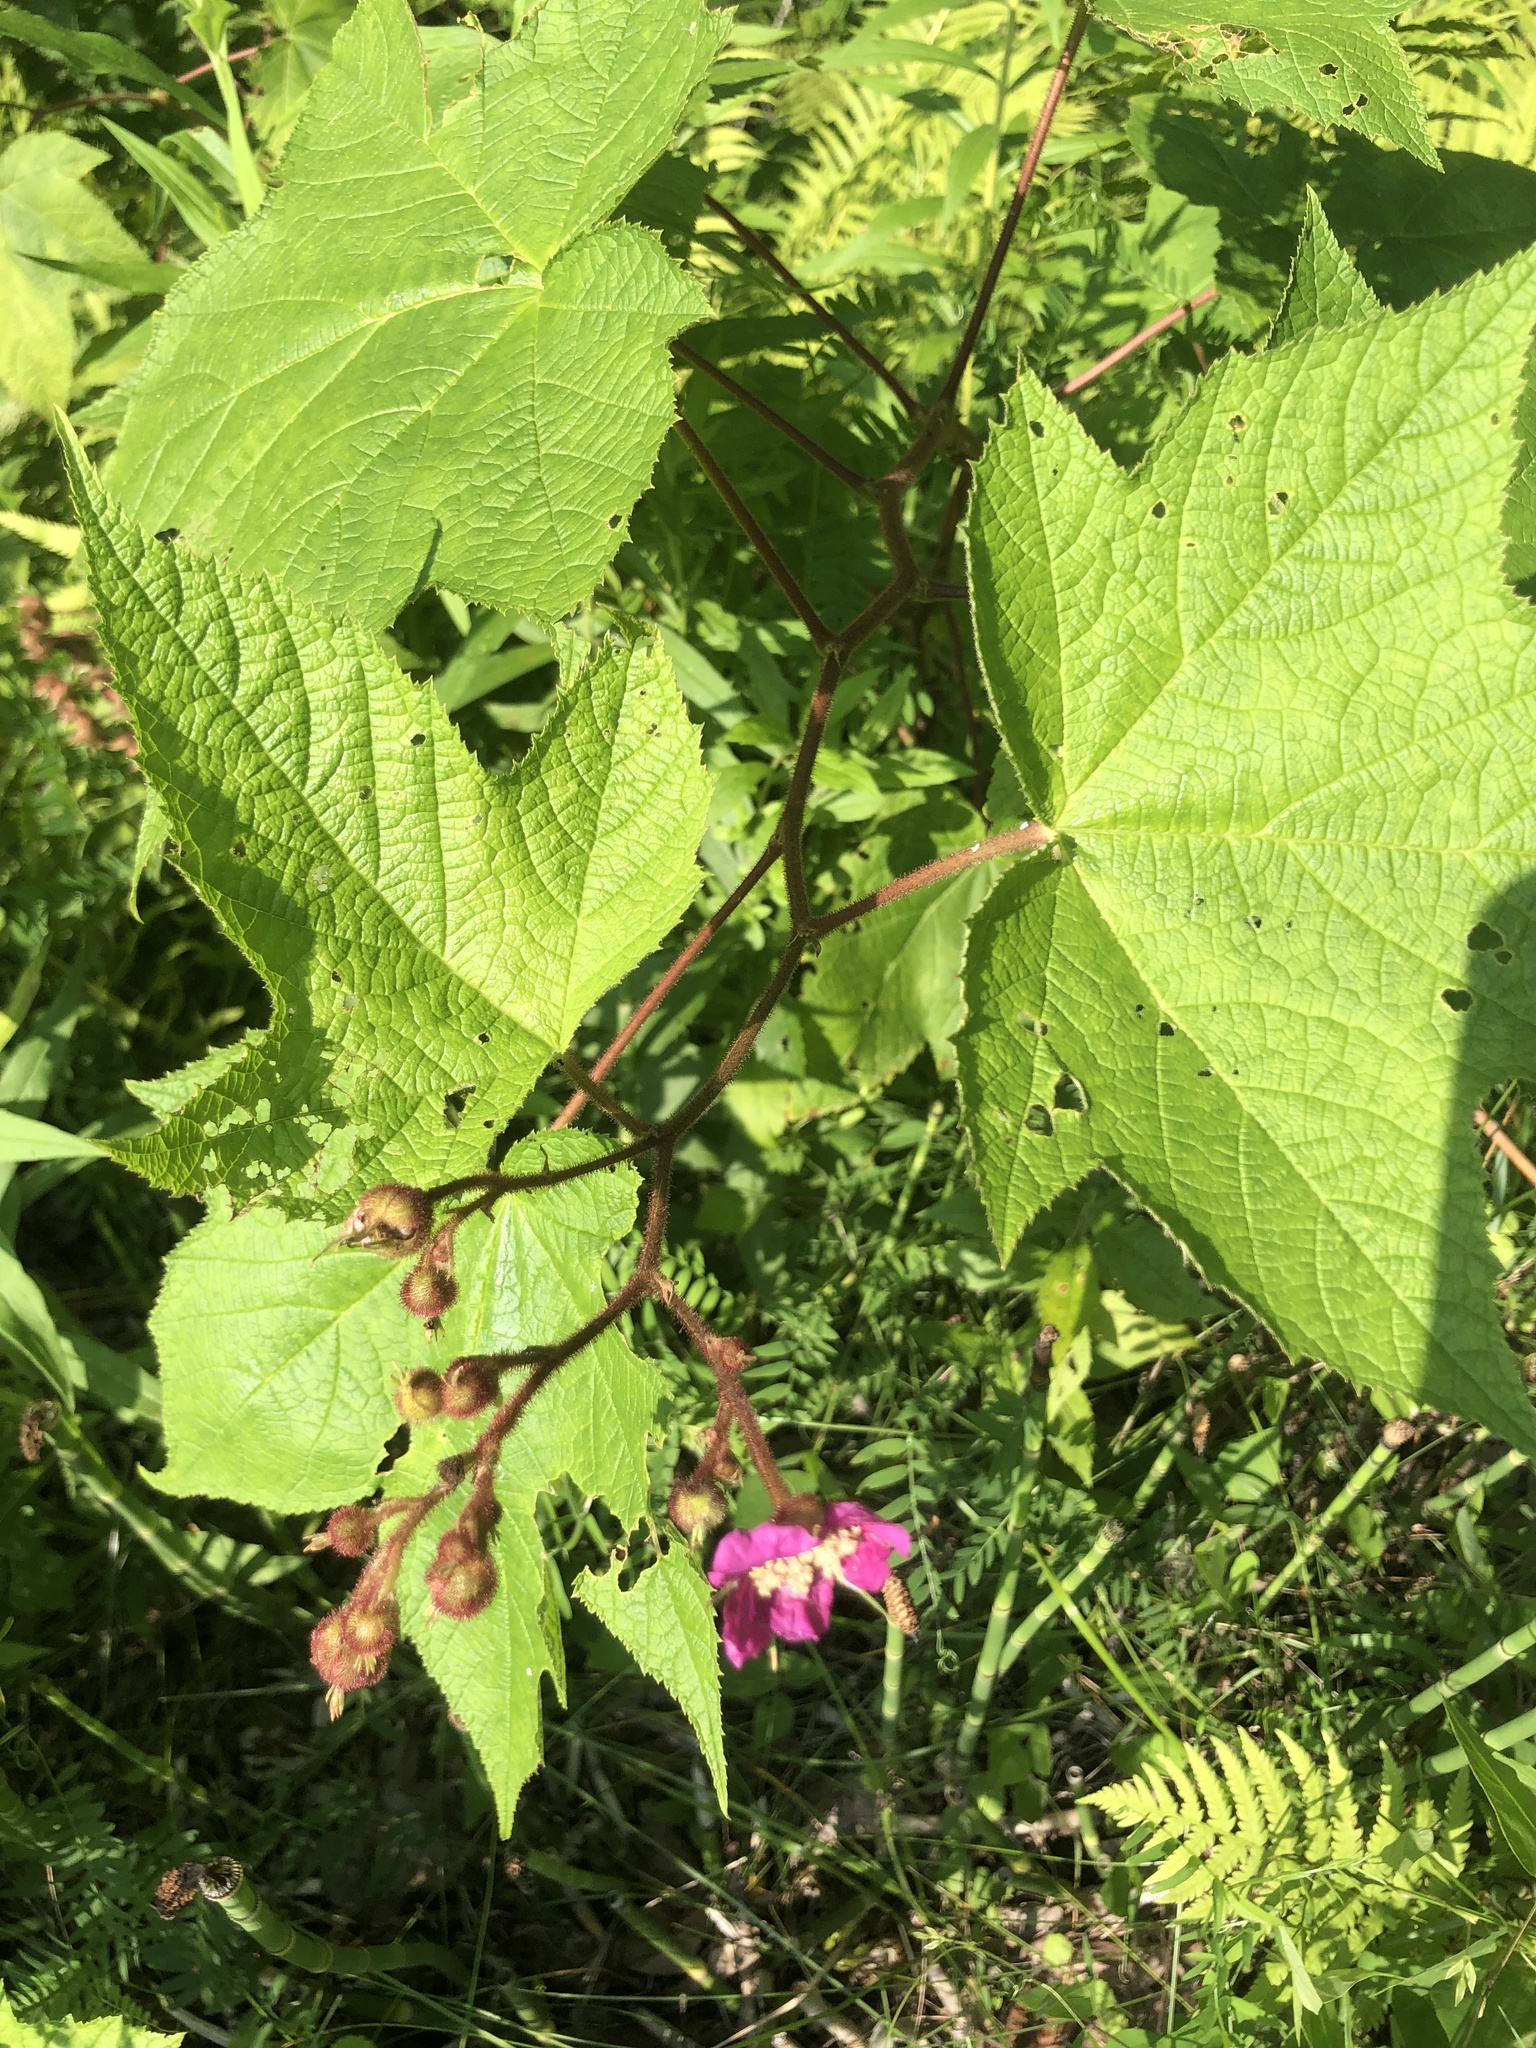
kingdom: Plantae
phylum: Tracheophyta
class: Magnoliopsida
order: Rosales
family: Rosaceae
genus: Rubus
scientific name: Rubus odoratus
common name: Purple-flowered raspberry
